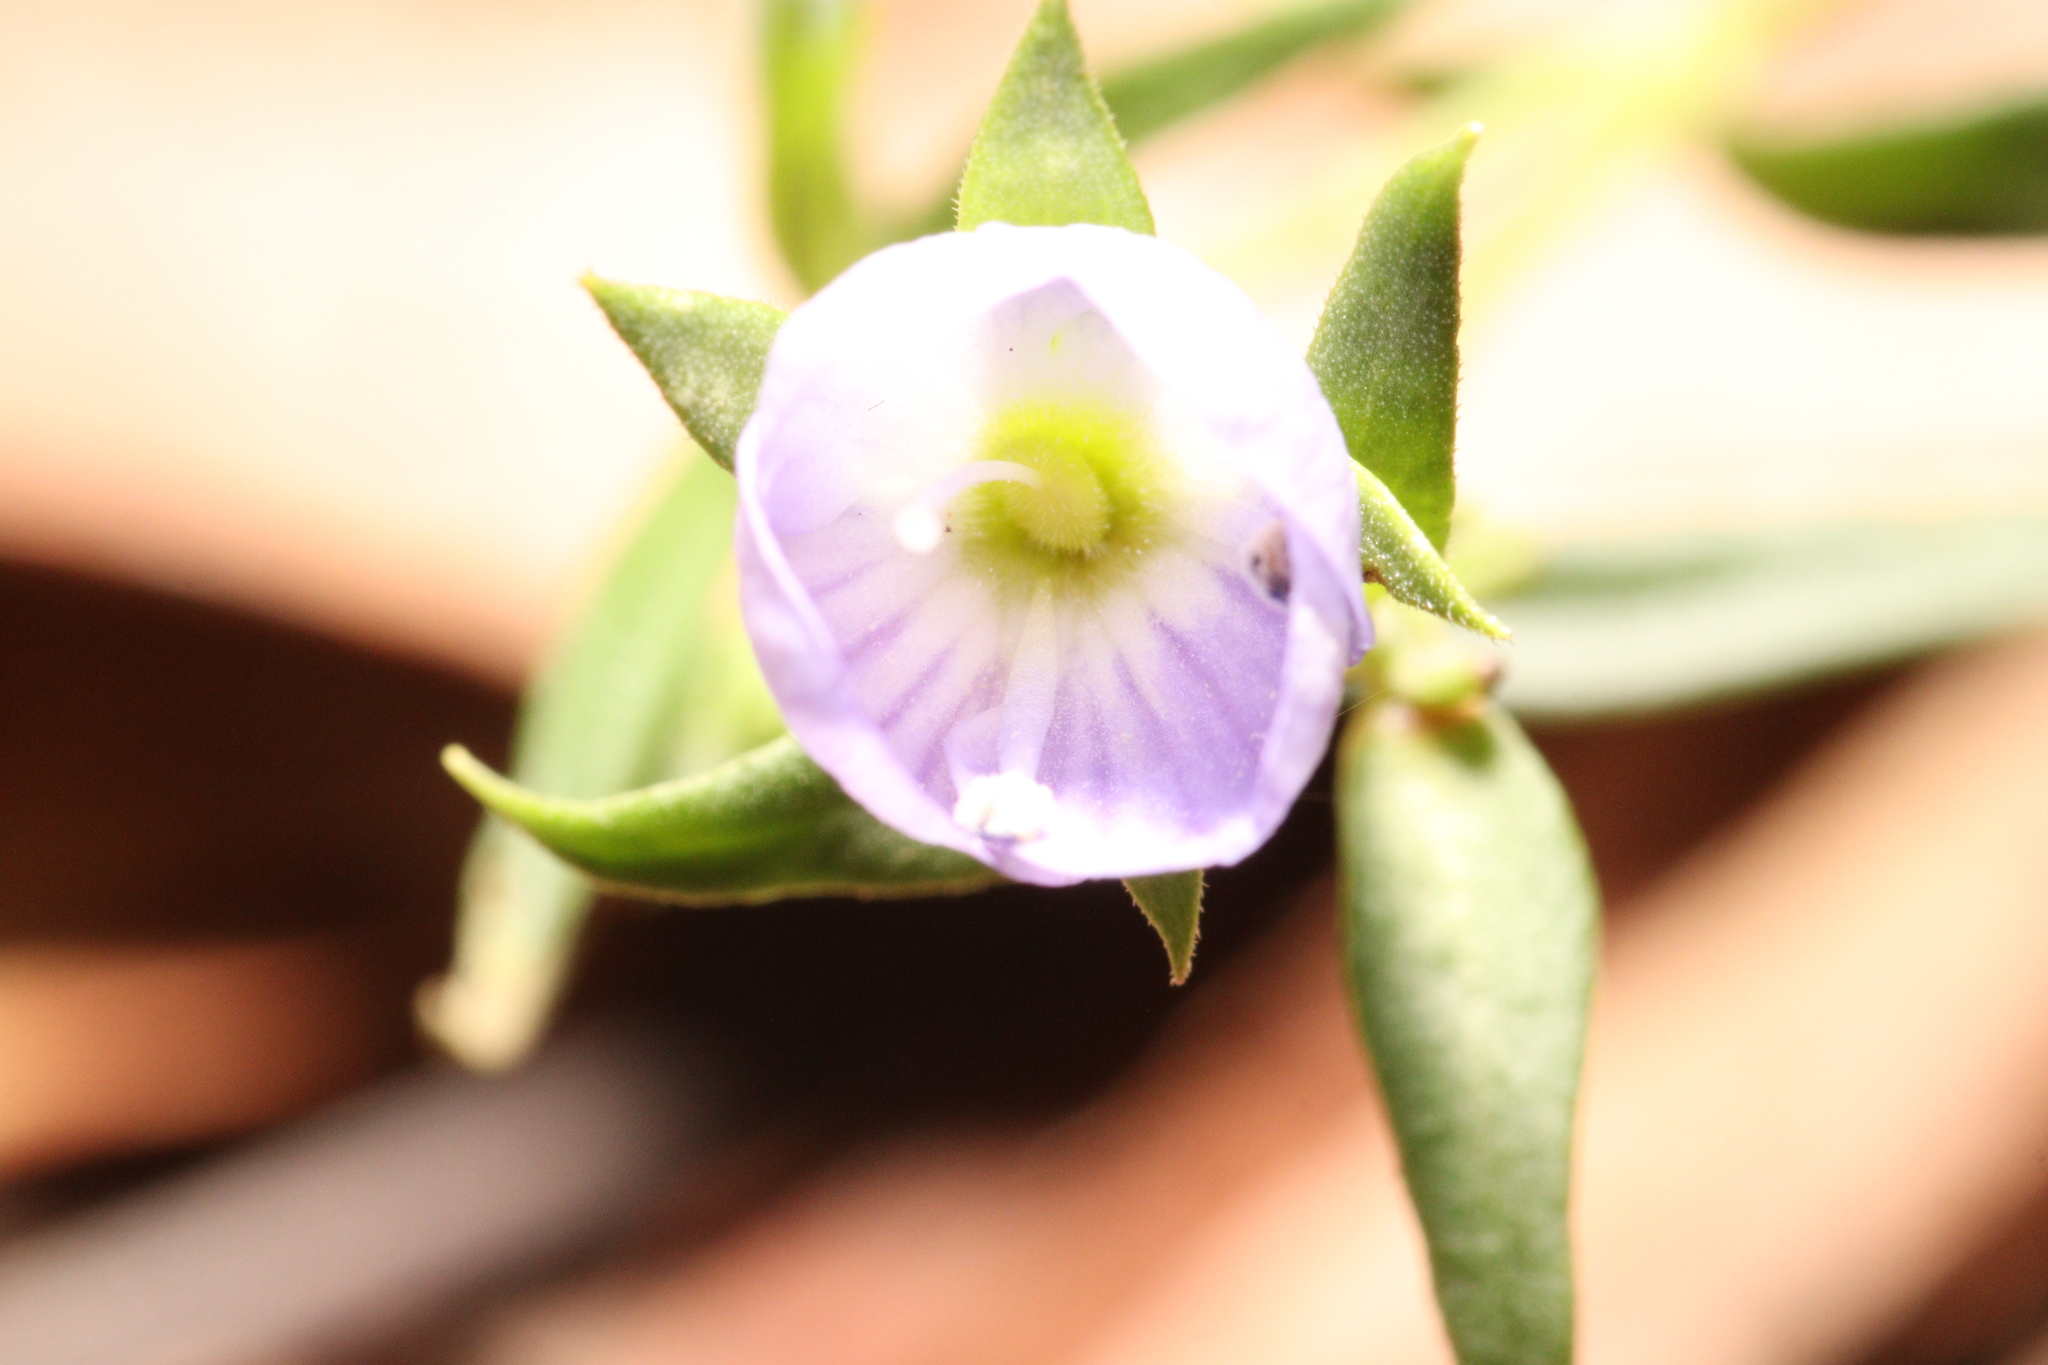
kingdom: Plantae
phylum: Tracheophyta
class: Magnoliopsida
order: Lamiales
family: Plantaginaceae
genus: Veronica
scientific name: Veronica gracilis
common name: Slender speedwell
